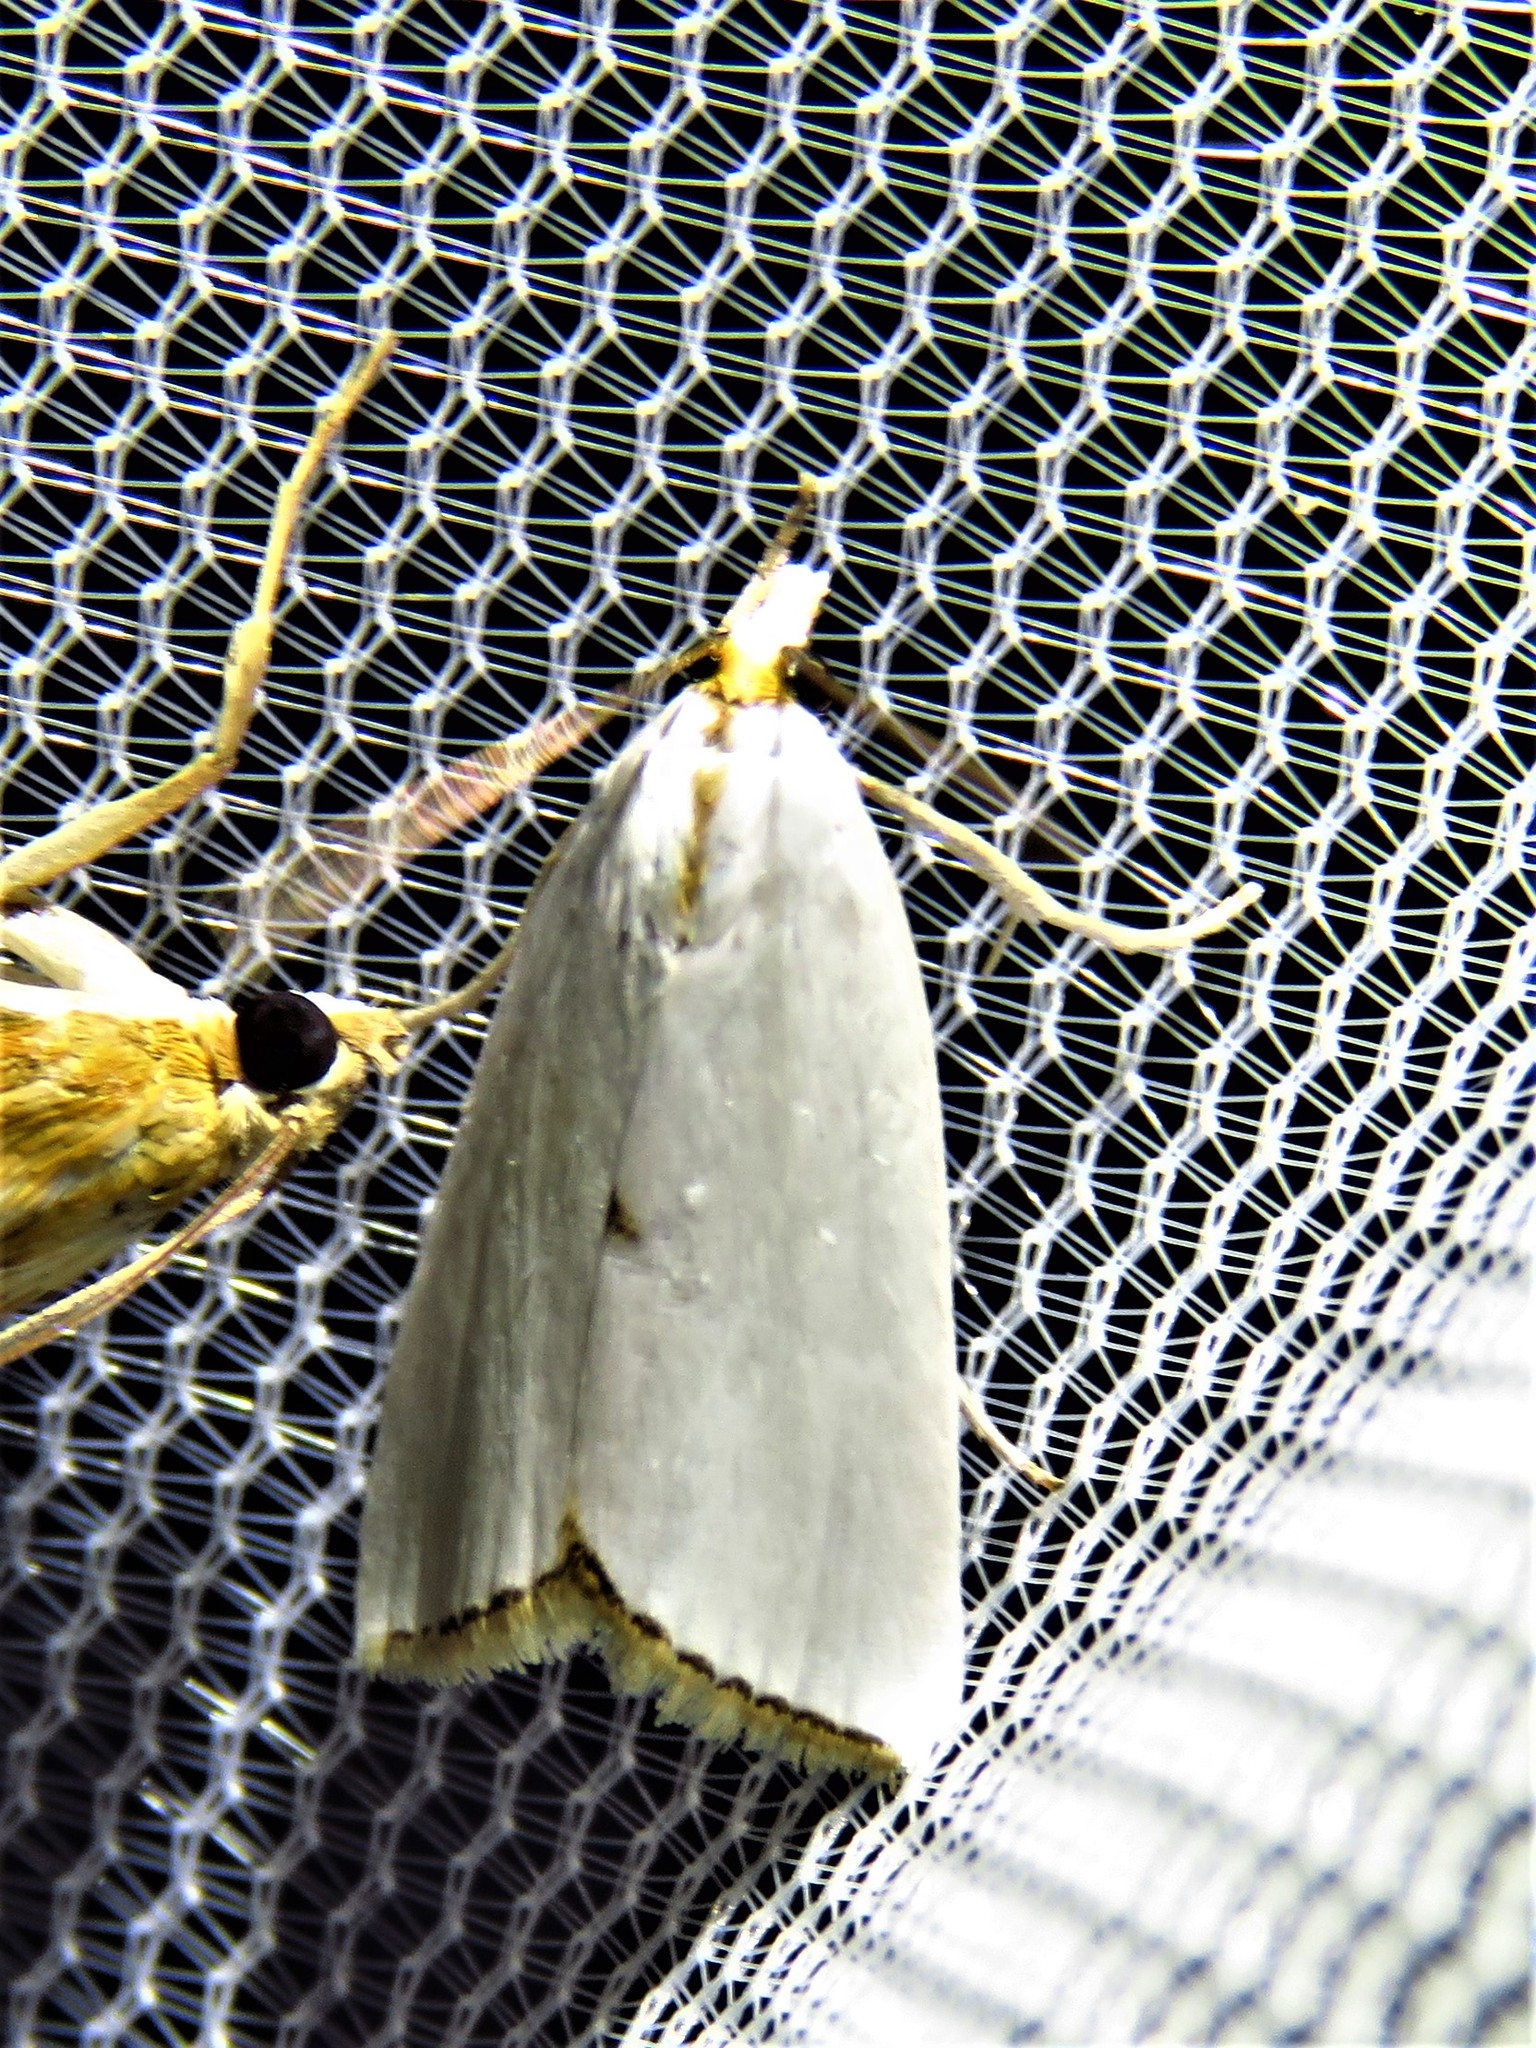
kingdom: Animalia
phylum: Arthropoda
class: Insecta
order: Lepidoptera
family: Crambidae
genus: Argyria
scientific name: Argyria nivalis
